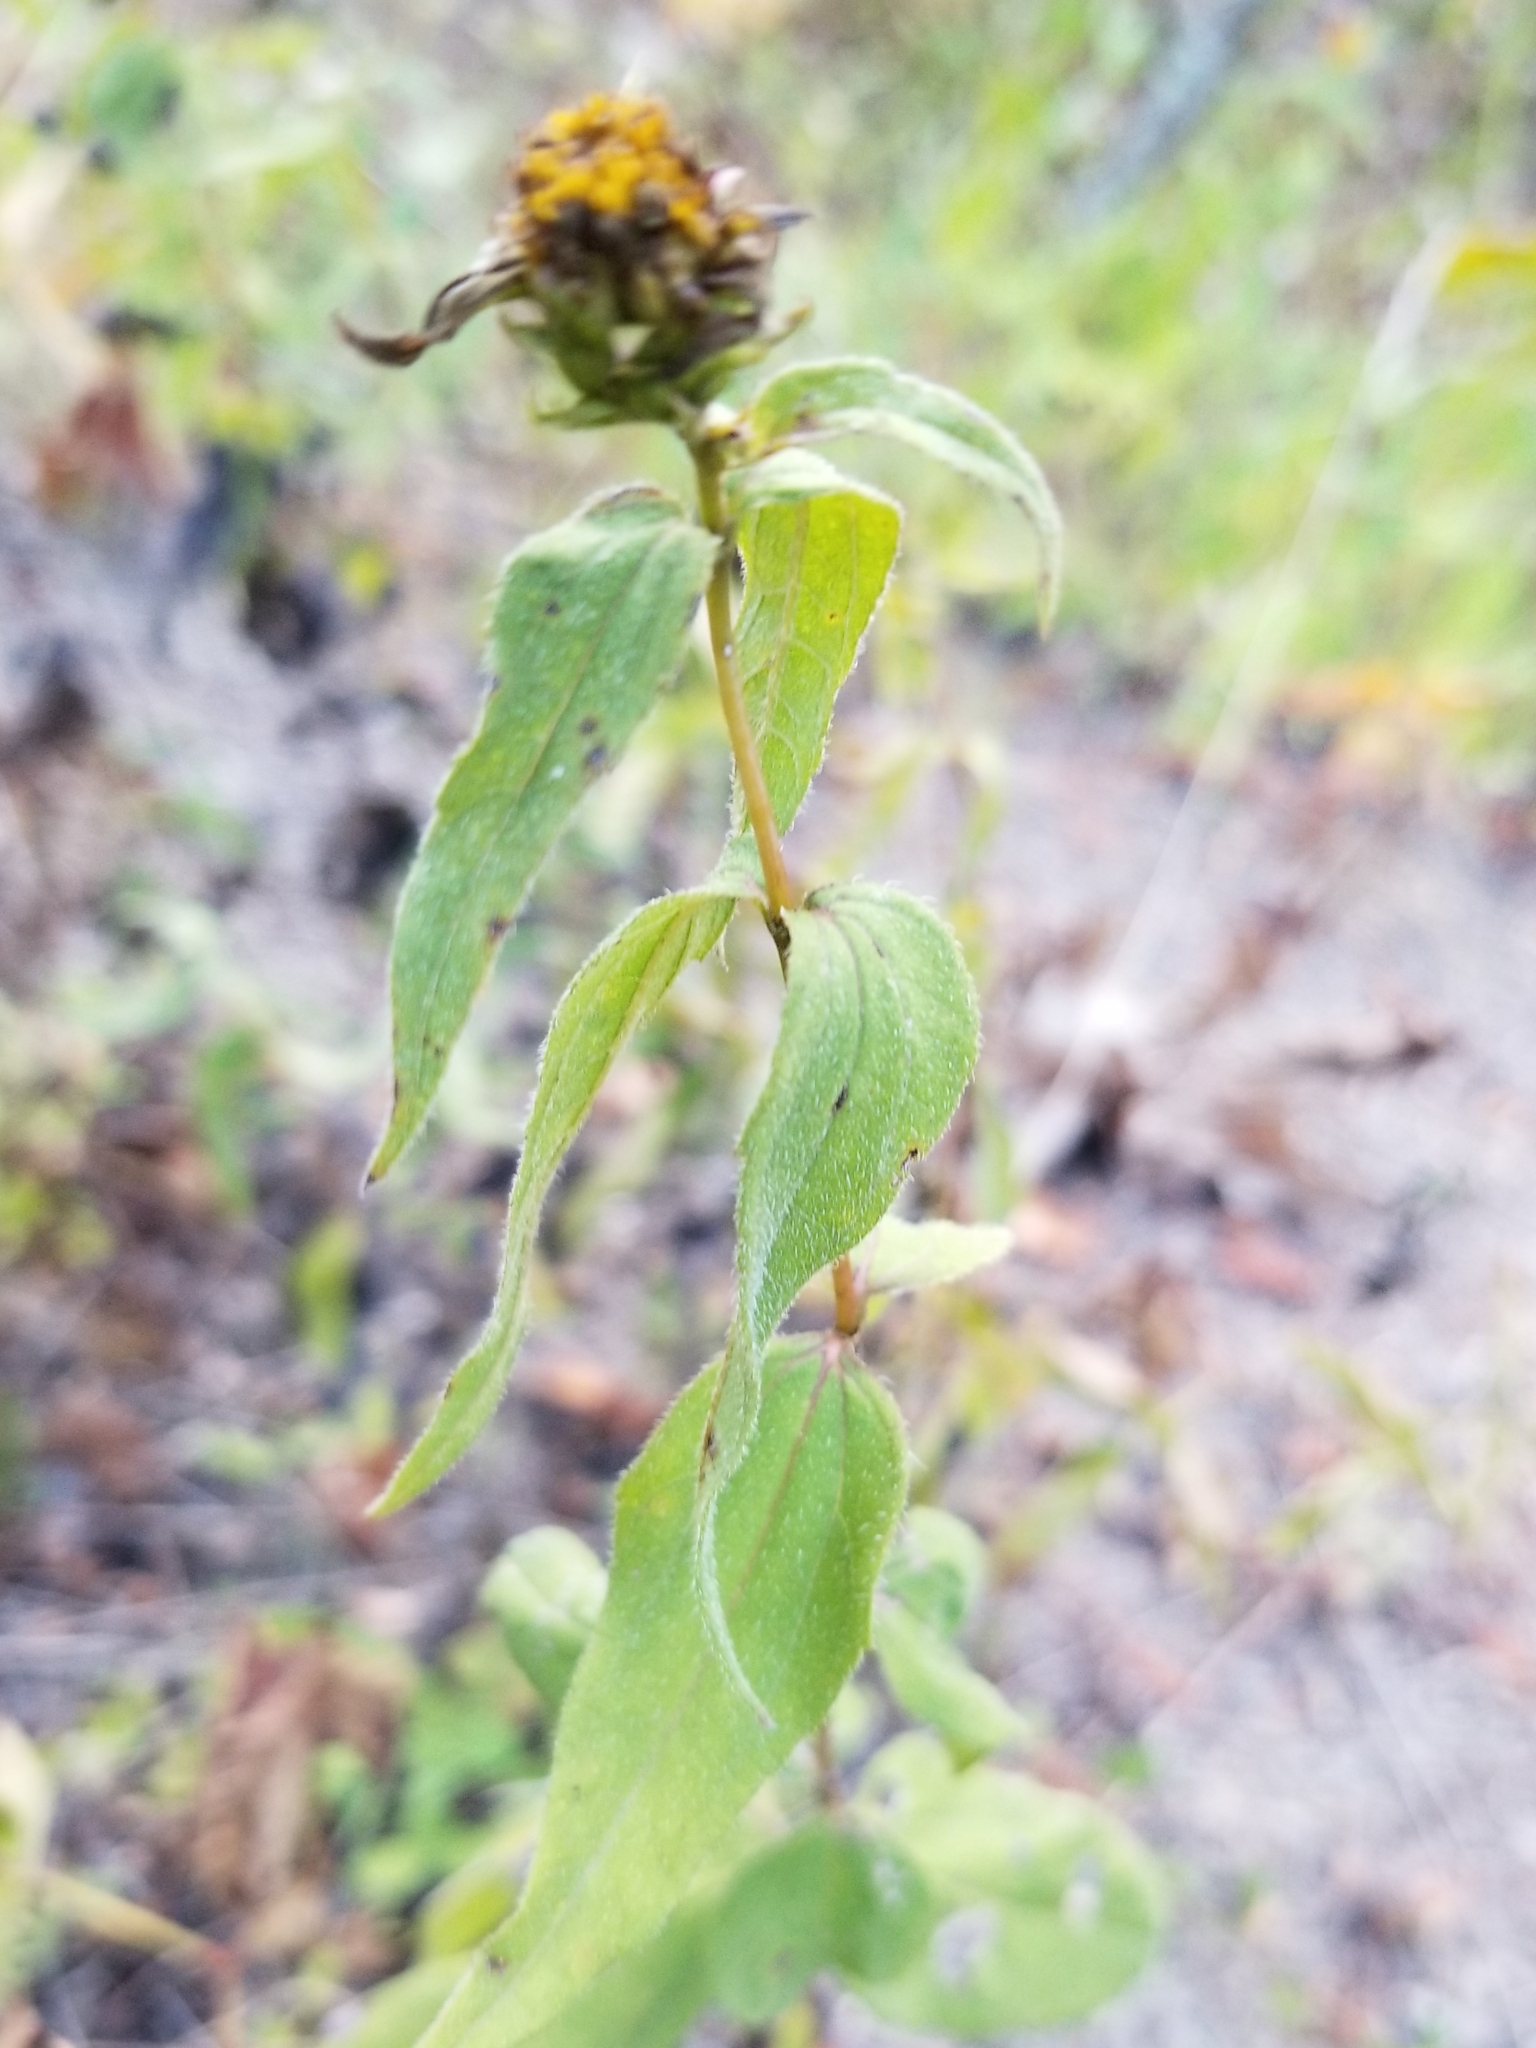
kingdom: Plantae
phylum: Tracheophyta
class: Magnoliopsida
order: Asterales
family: Asteraceae
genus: Helianthus
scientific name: Helianthus divaricatus
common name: Divergent sunflower
